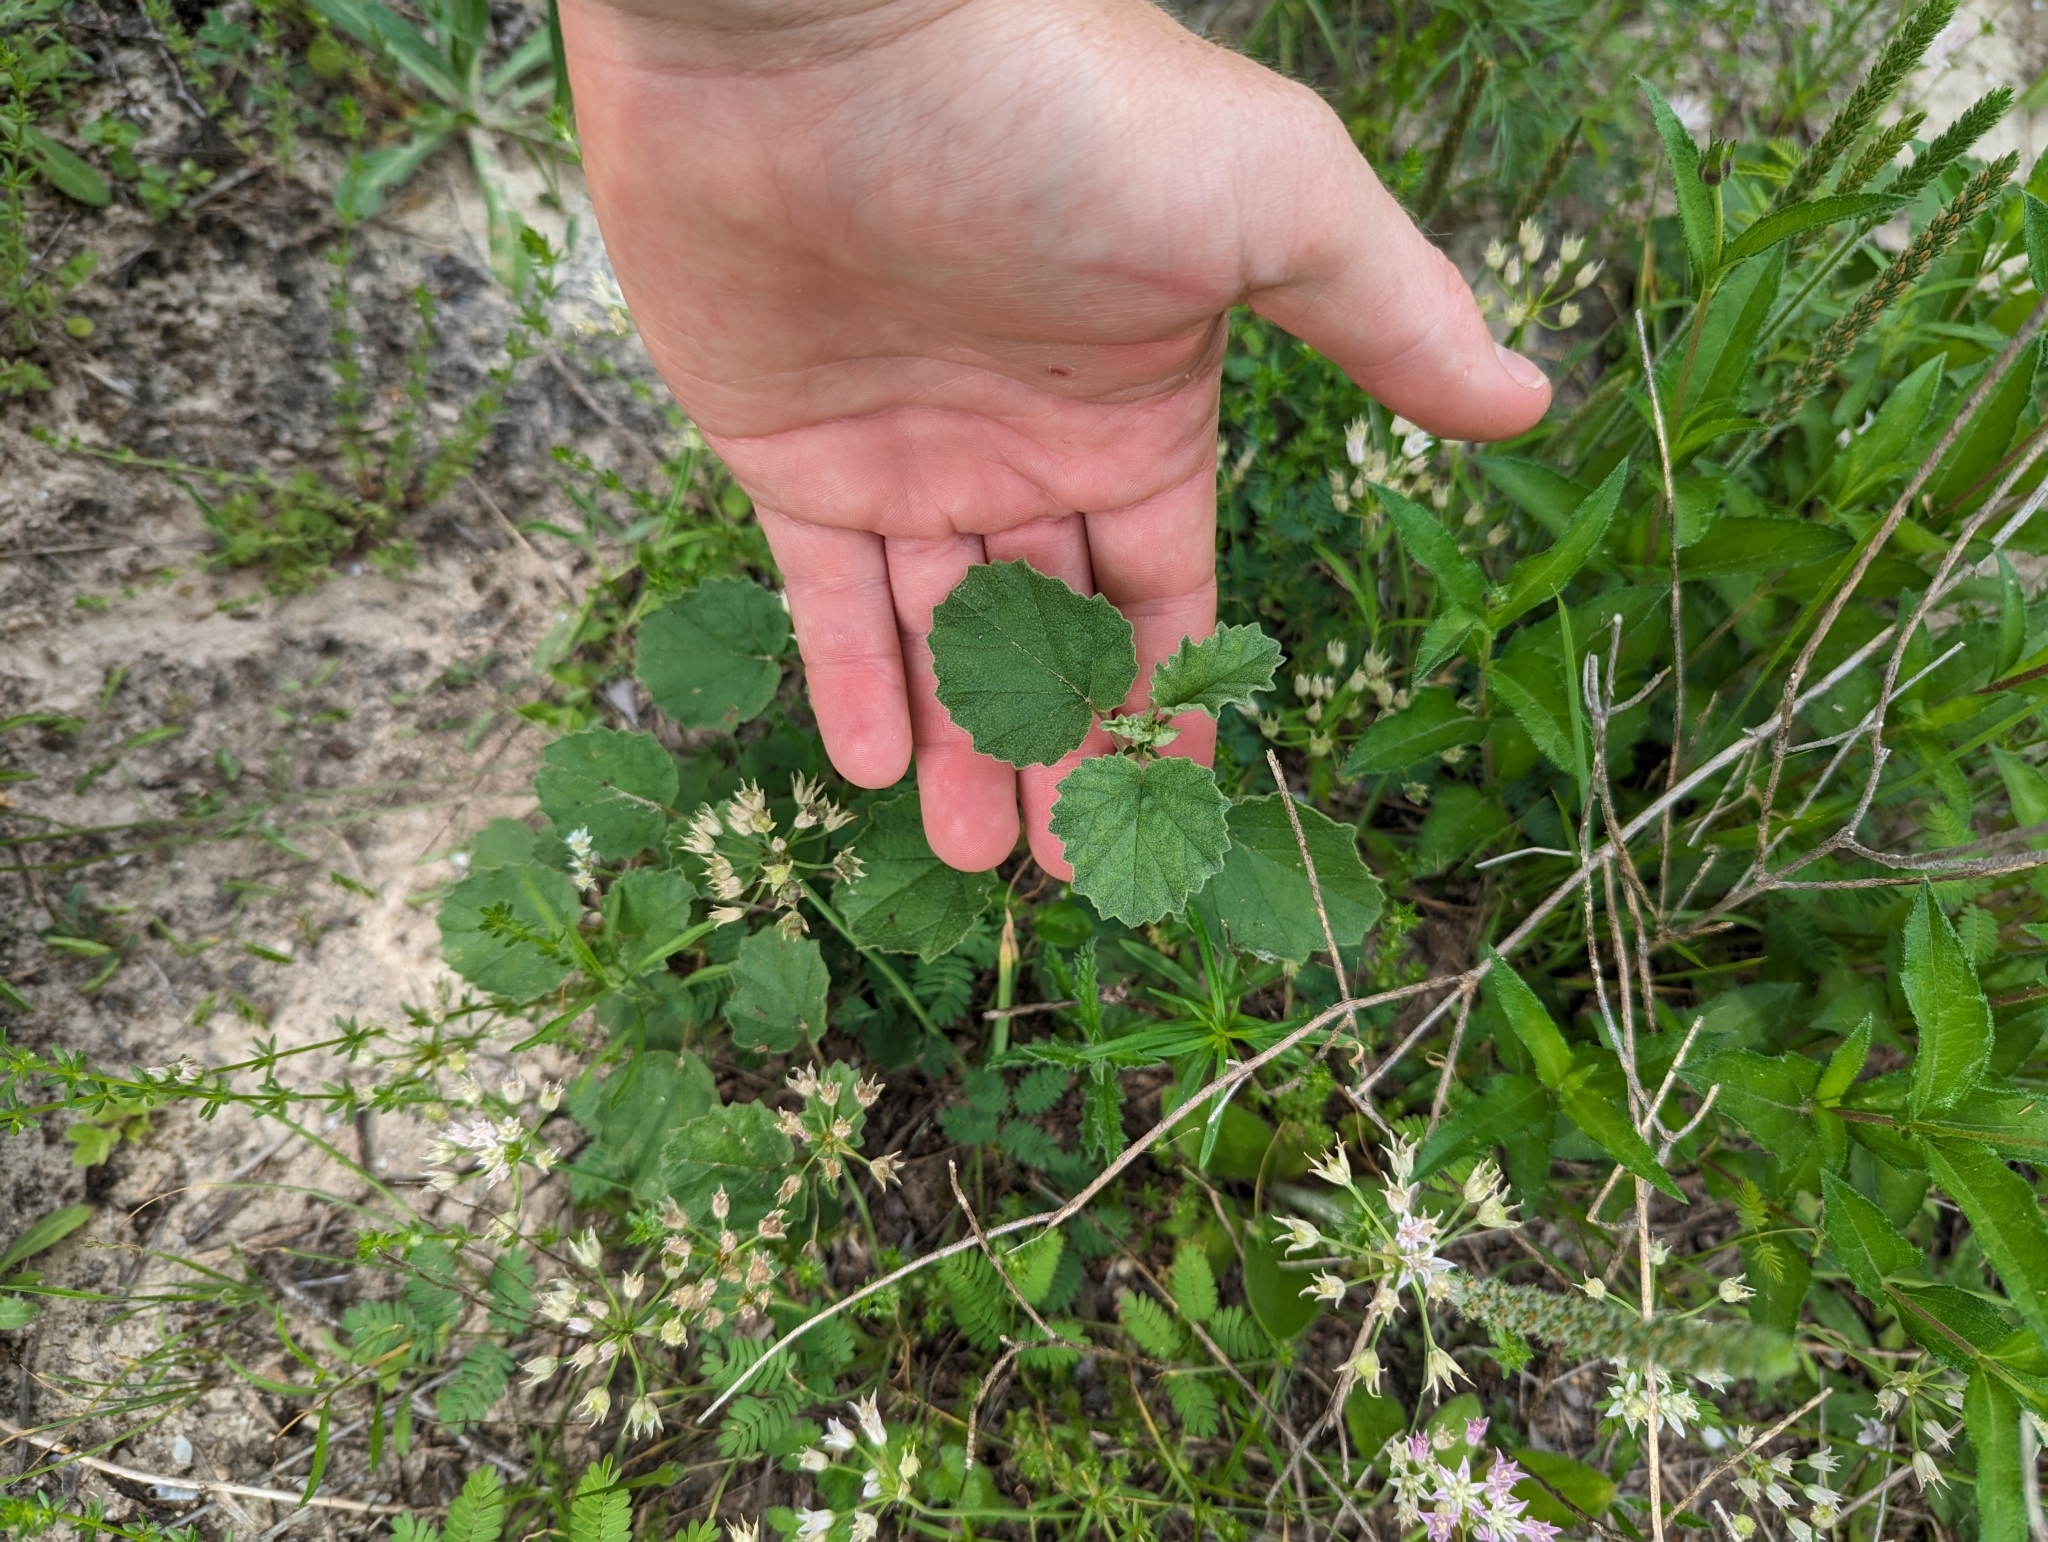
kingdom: Plantae
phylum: Tracheophyta
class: Magnoliopsida
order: Malvales
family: Malvaceae
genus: Hermannia
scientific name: Hermannia texana
